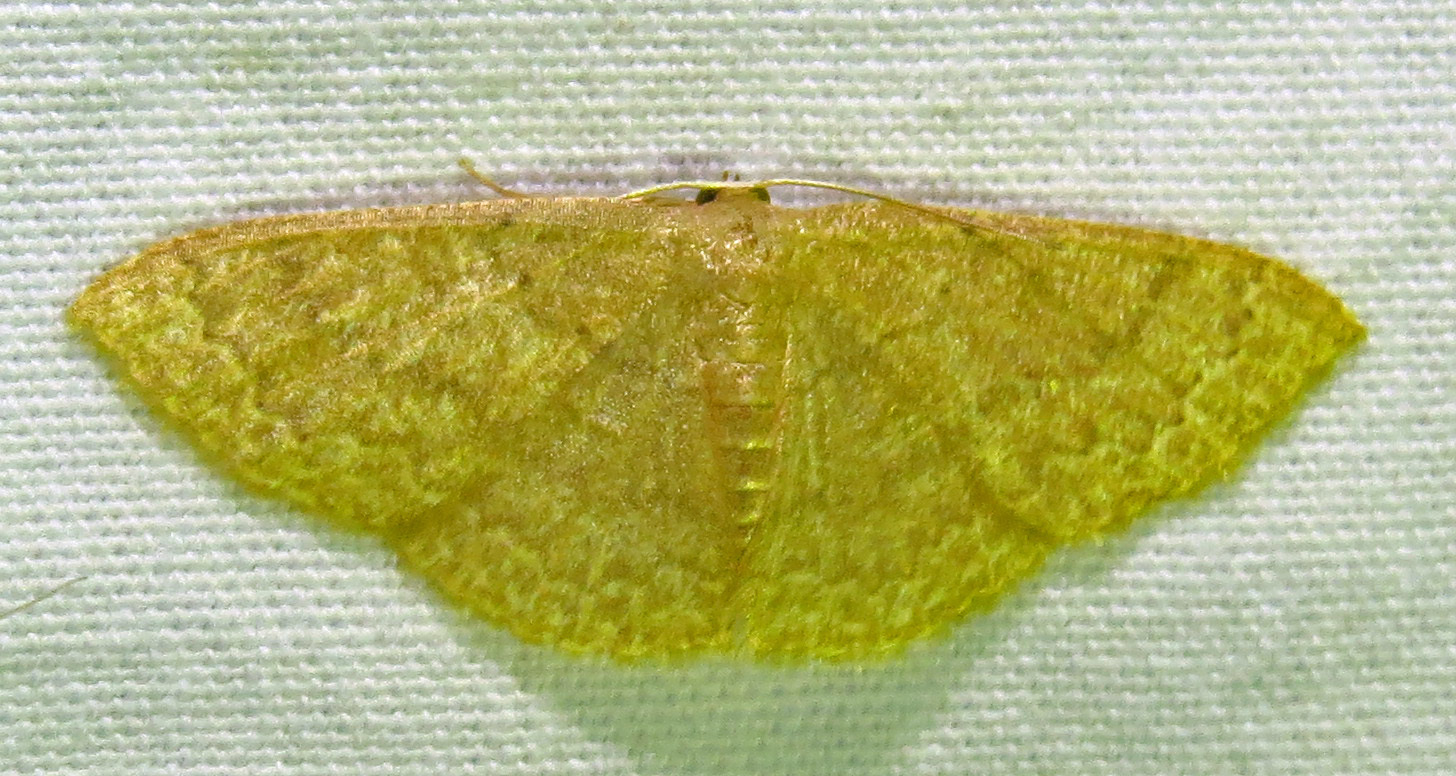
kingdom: Animalia
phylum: Arthropoda
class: Insecta
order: Lepidoptera
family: Geometridae
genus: Pleuroprucha
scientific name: Pleuroprucha insulsaria
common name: Common tan wave
